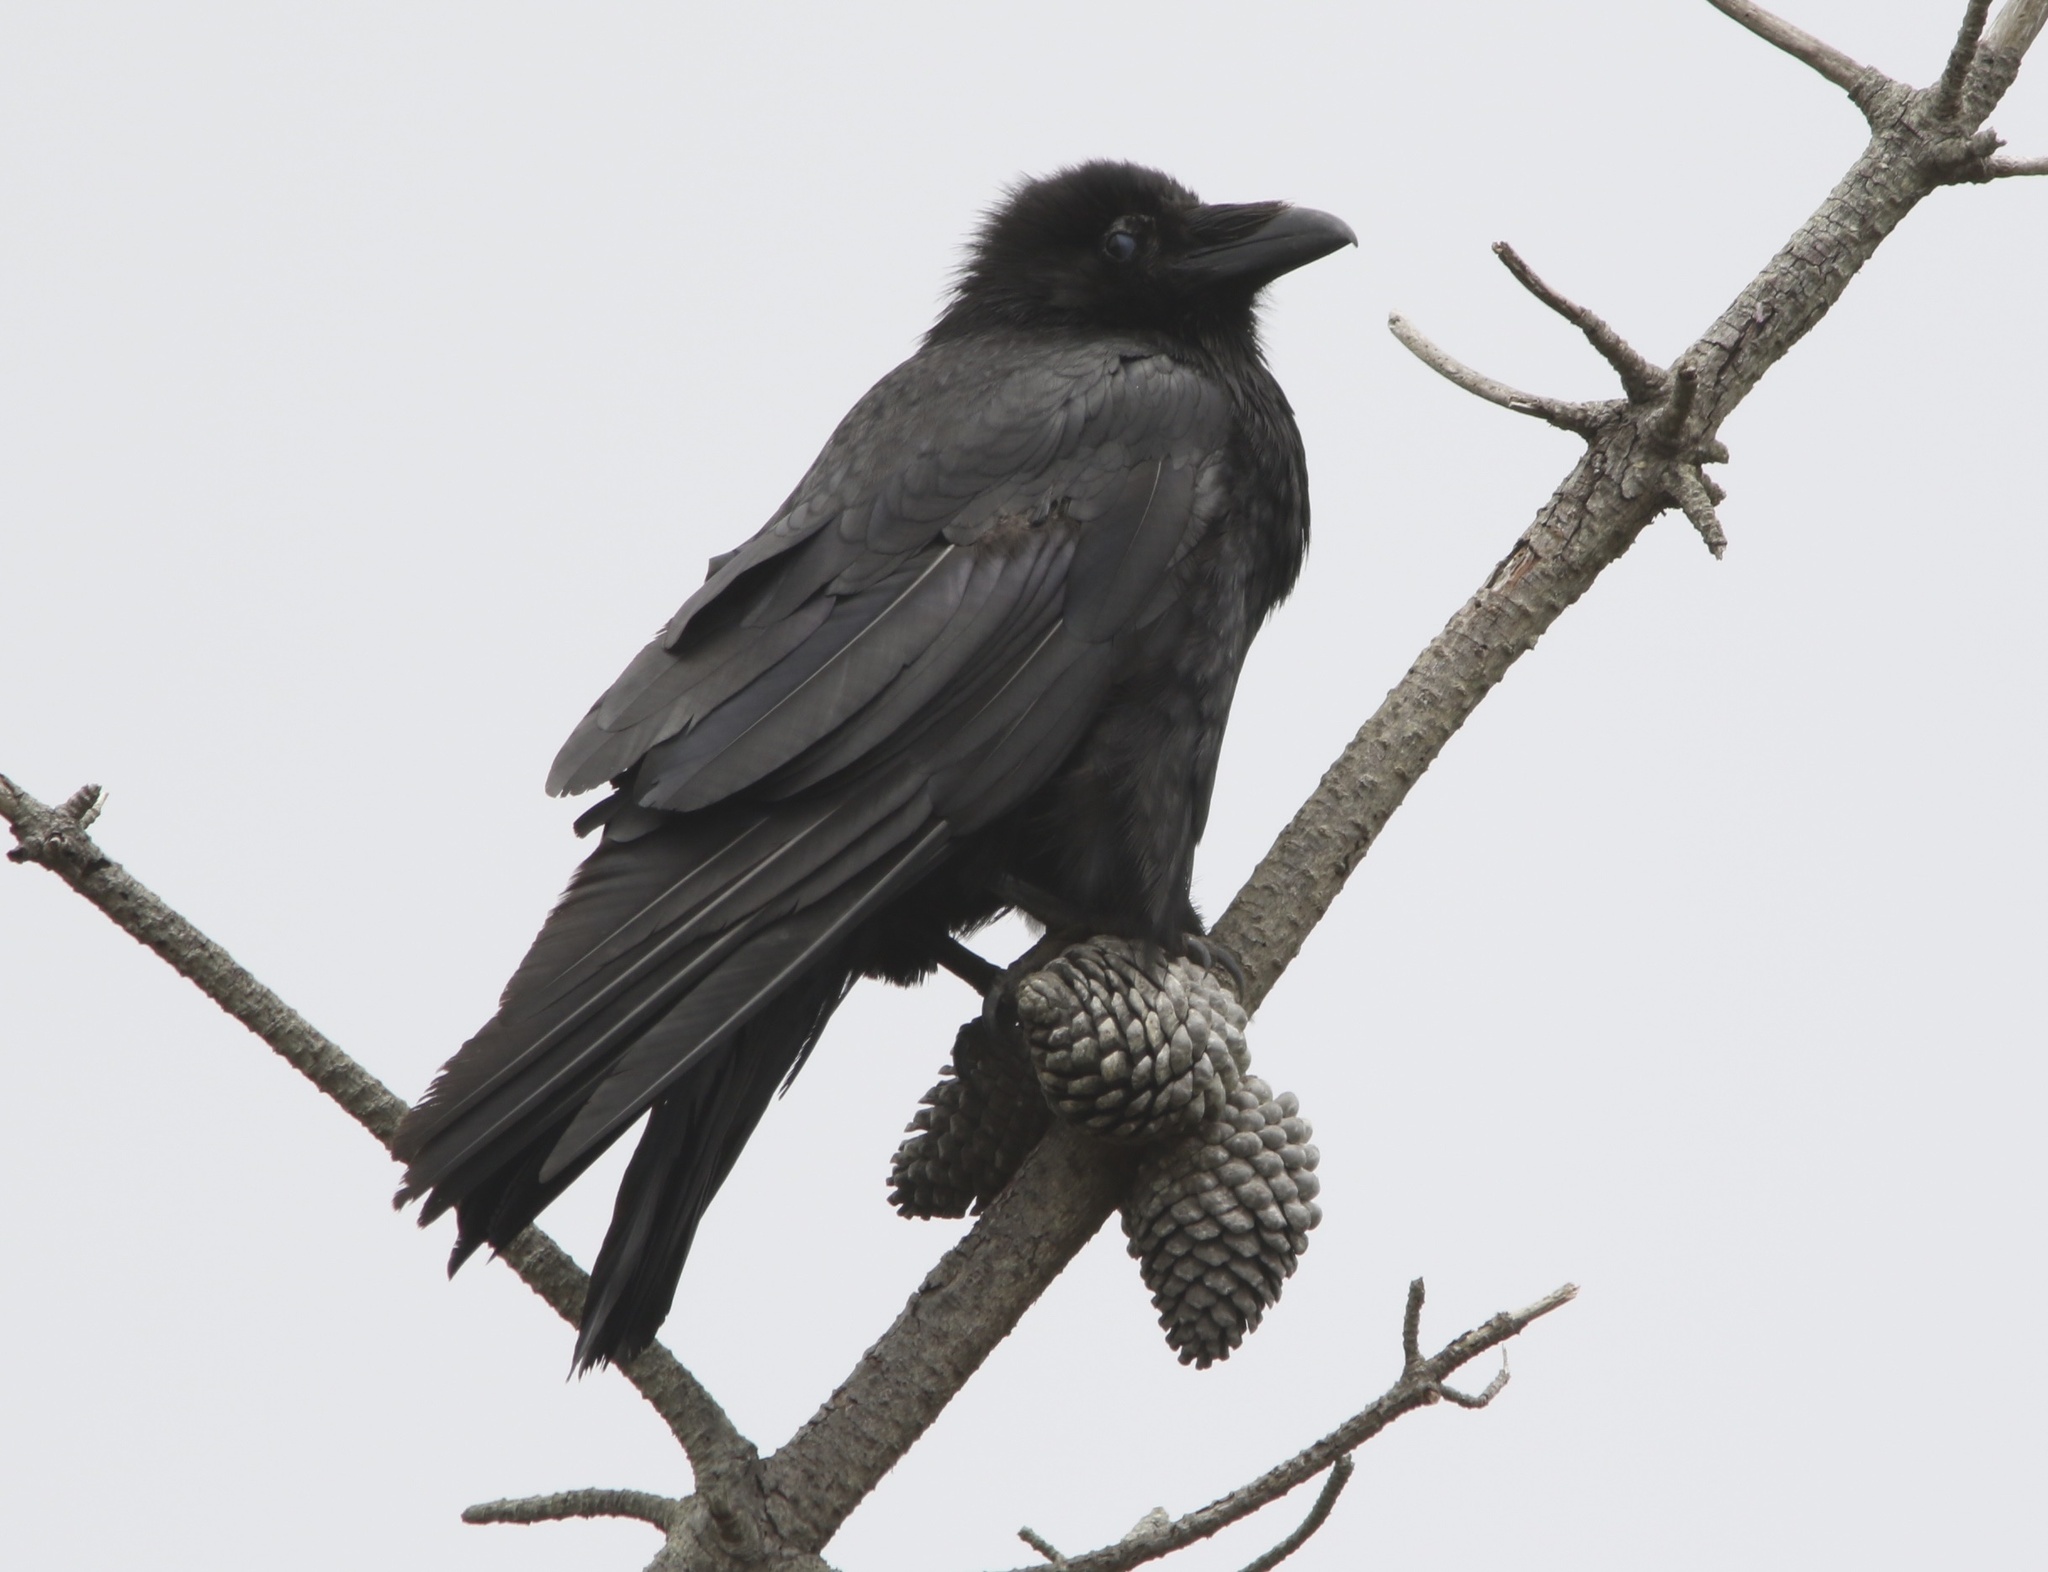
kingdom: Animalia
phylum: Chordata
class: Aves
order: Passeriformes
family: Corvidae
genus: Corvus
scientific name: Corvus corax
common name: Common raven
